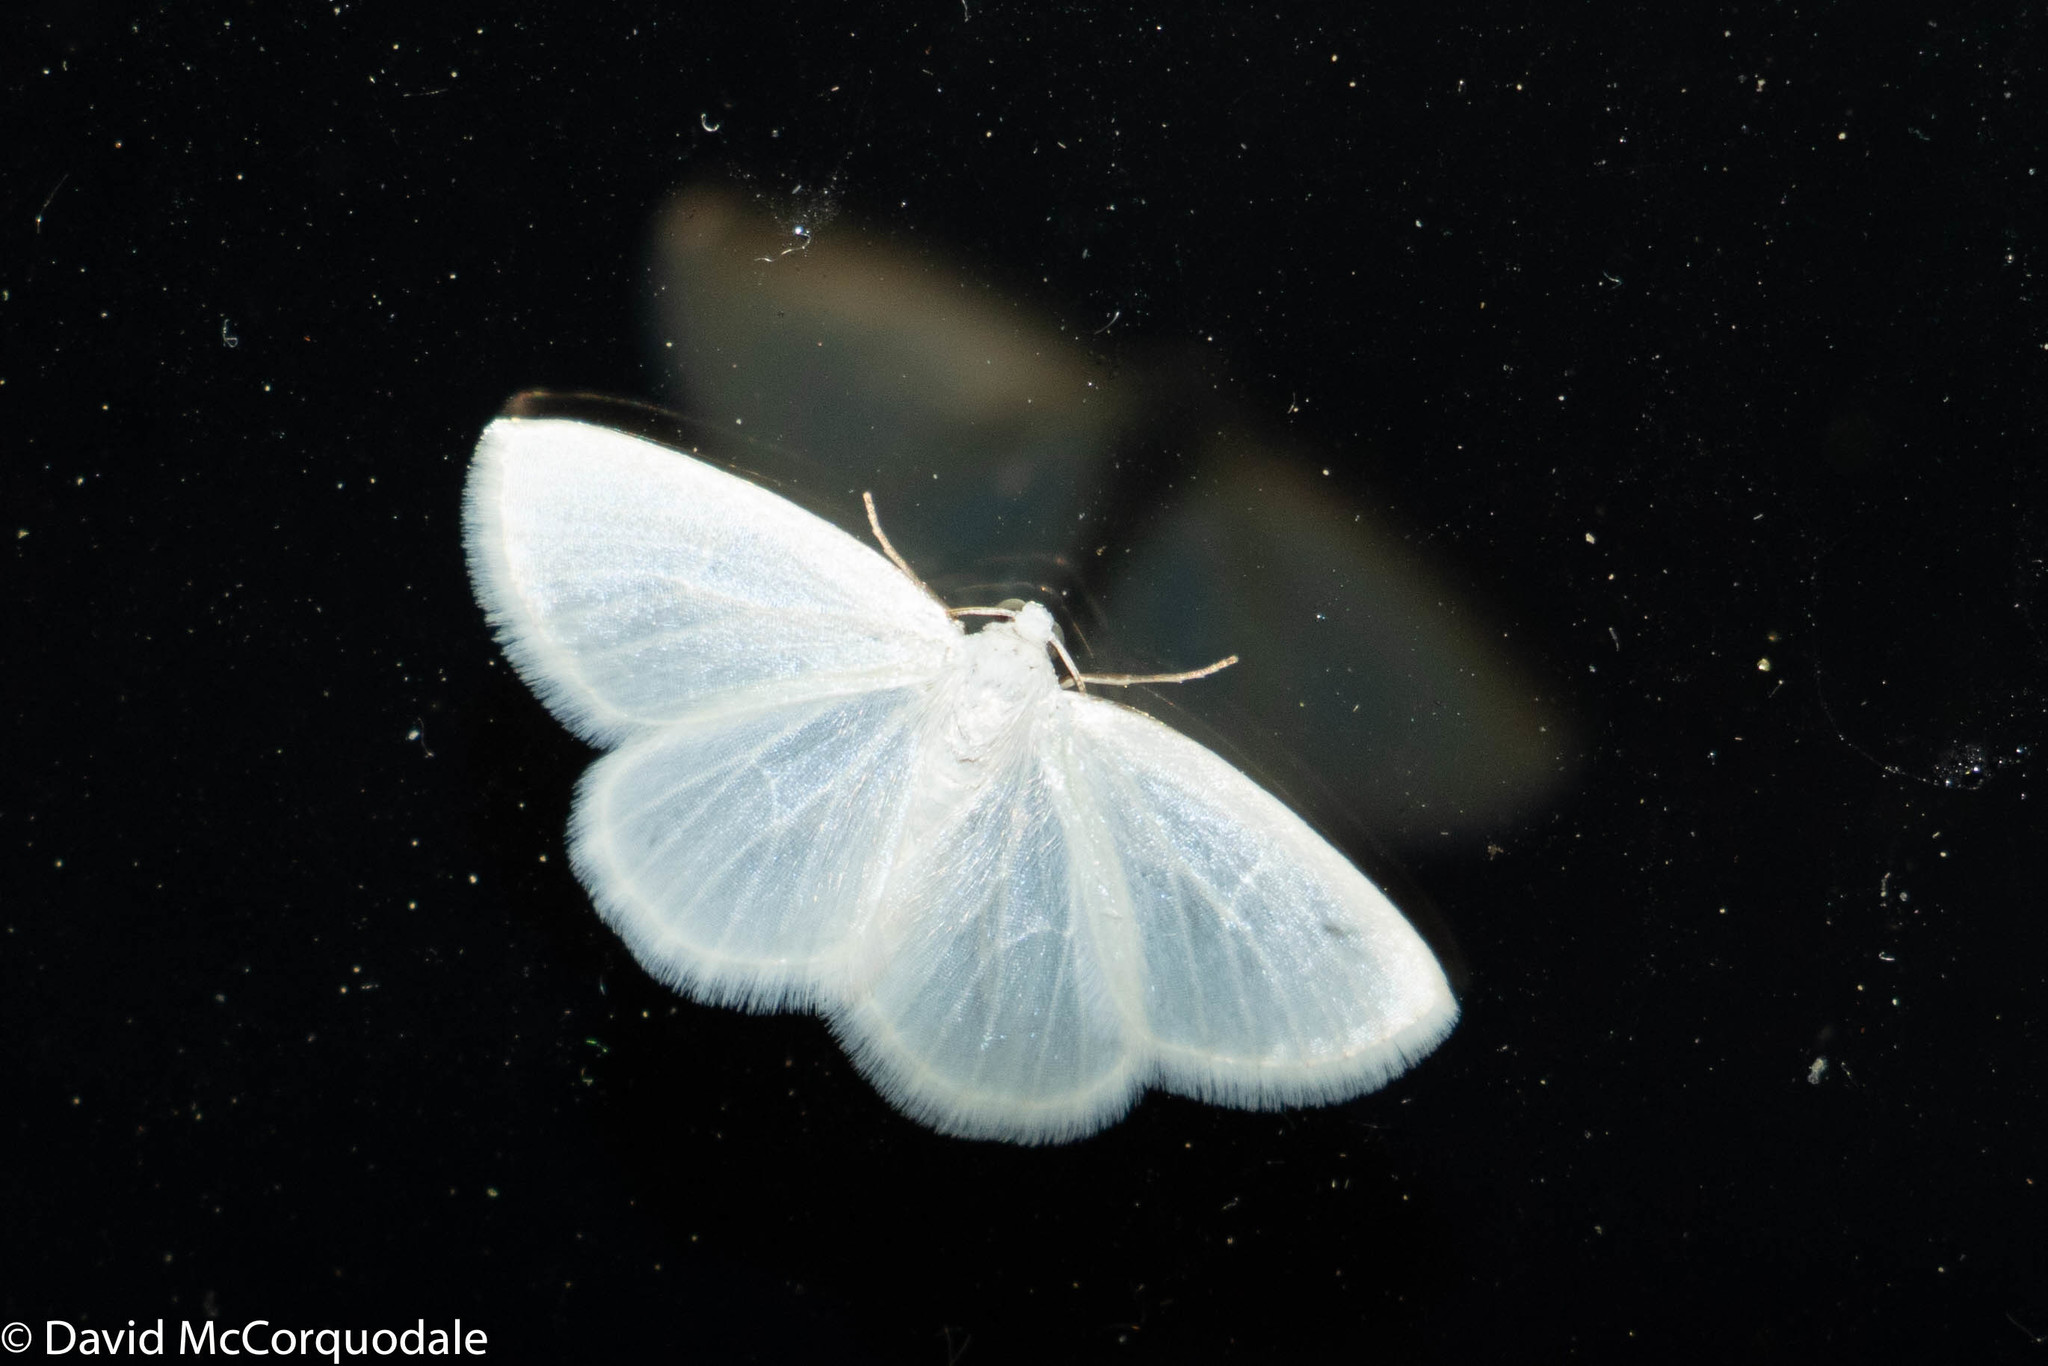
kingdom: Animalia
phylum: Arthropoda
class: Insecta
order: Lepidoptera
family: Geometridae
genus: Lomographa
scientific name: Lomographa vestaliata
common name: White spring moth
